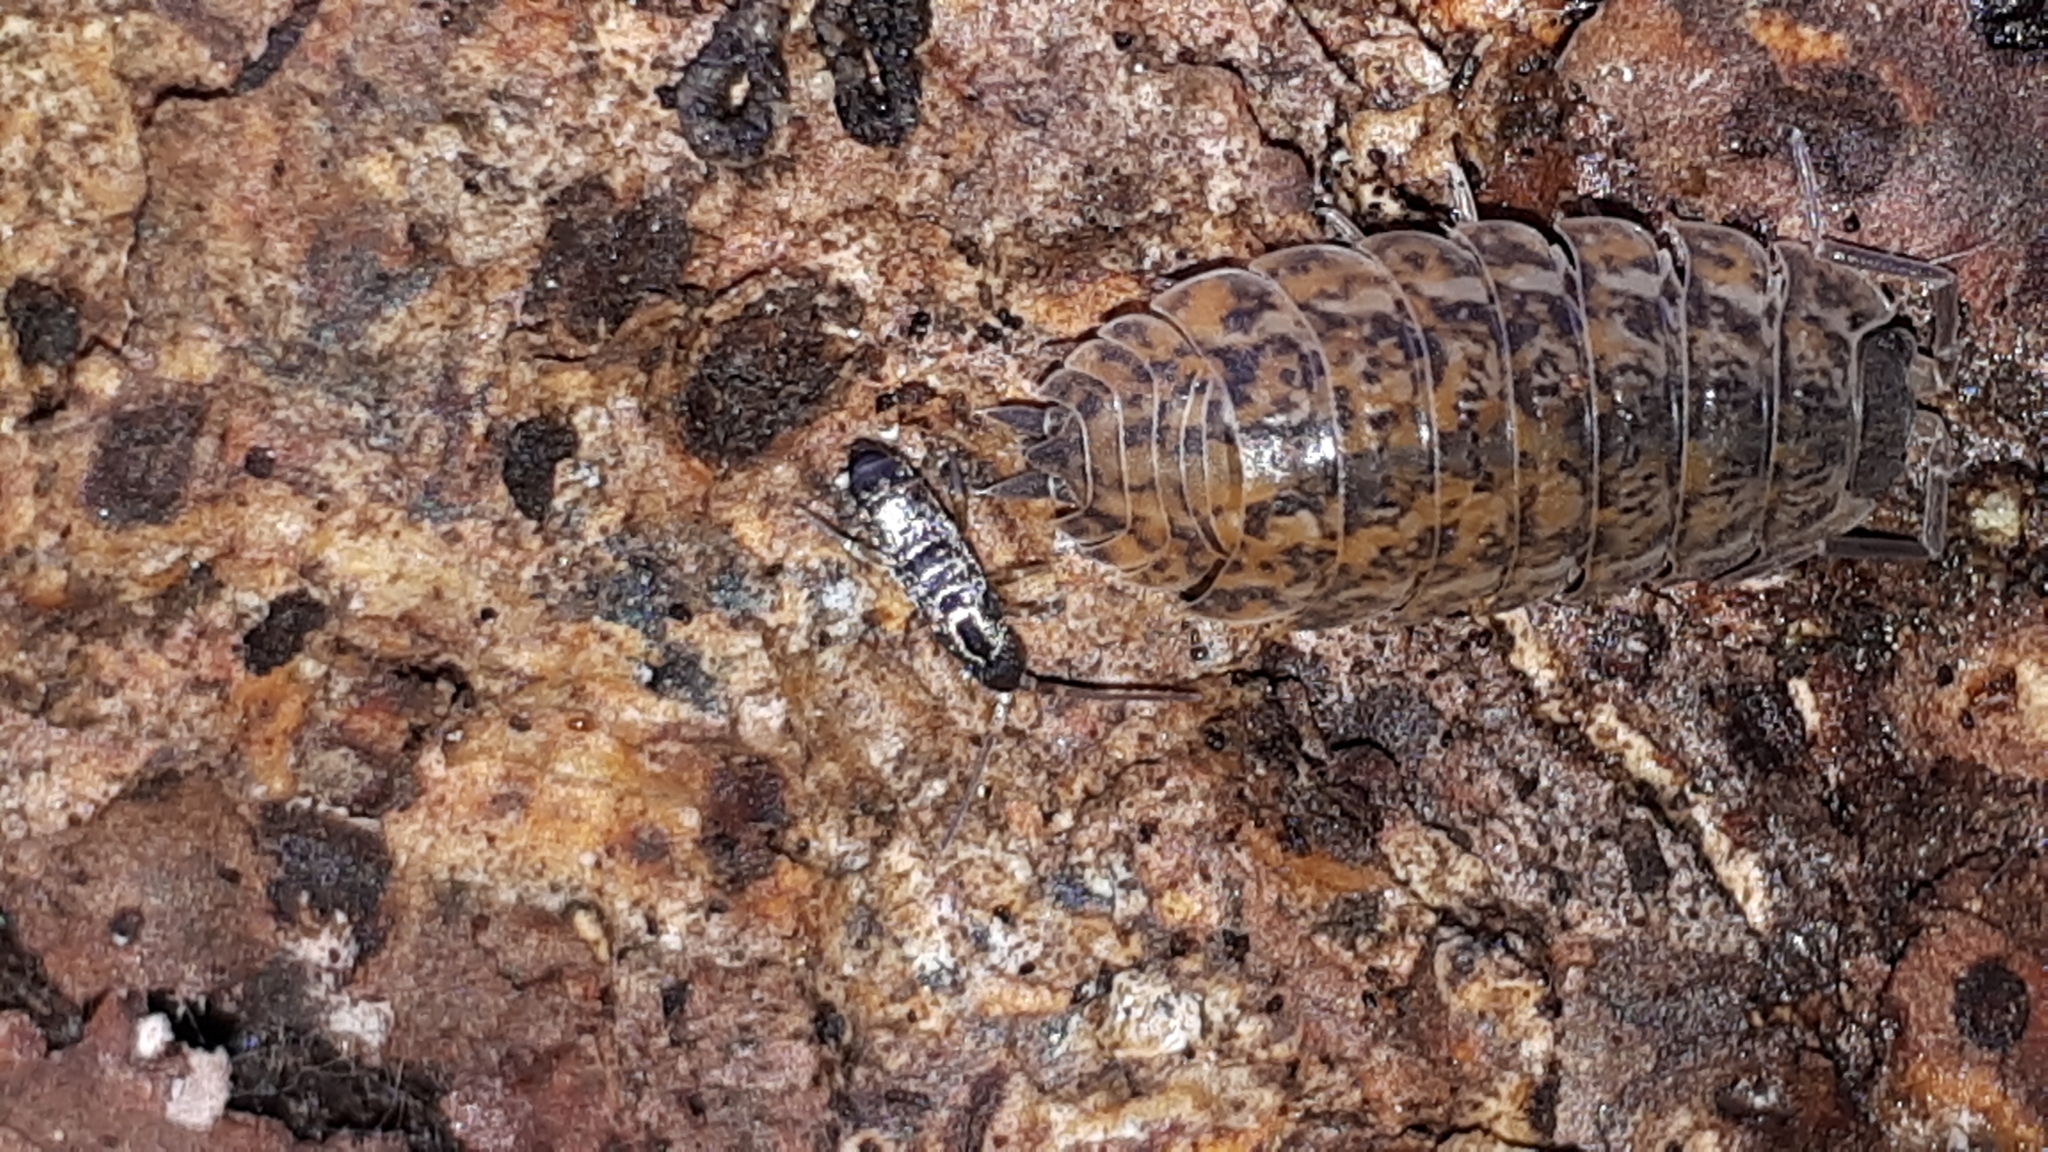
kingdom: Animalia
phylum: Arthropoda
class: Malacostraca
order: Isopoda
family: Trachelipodidae
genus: Trachelipus
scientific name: Trachelipus rathkii
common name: Isopod
